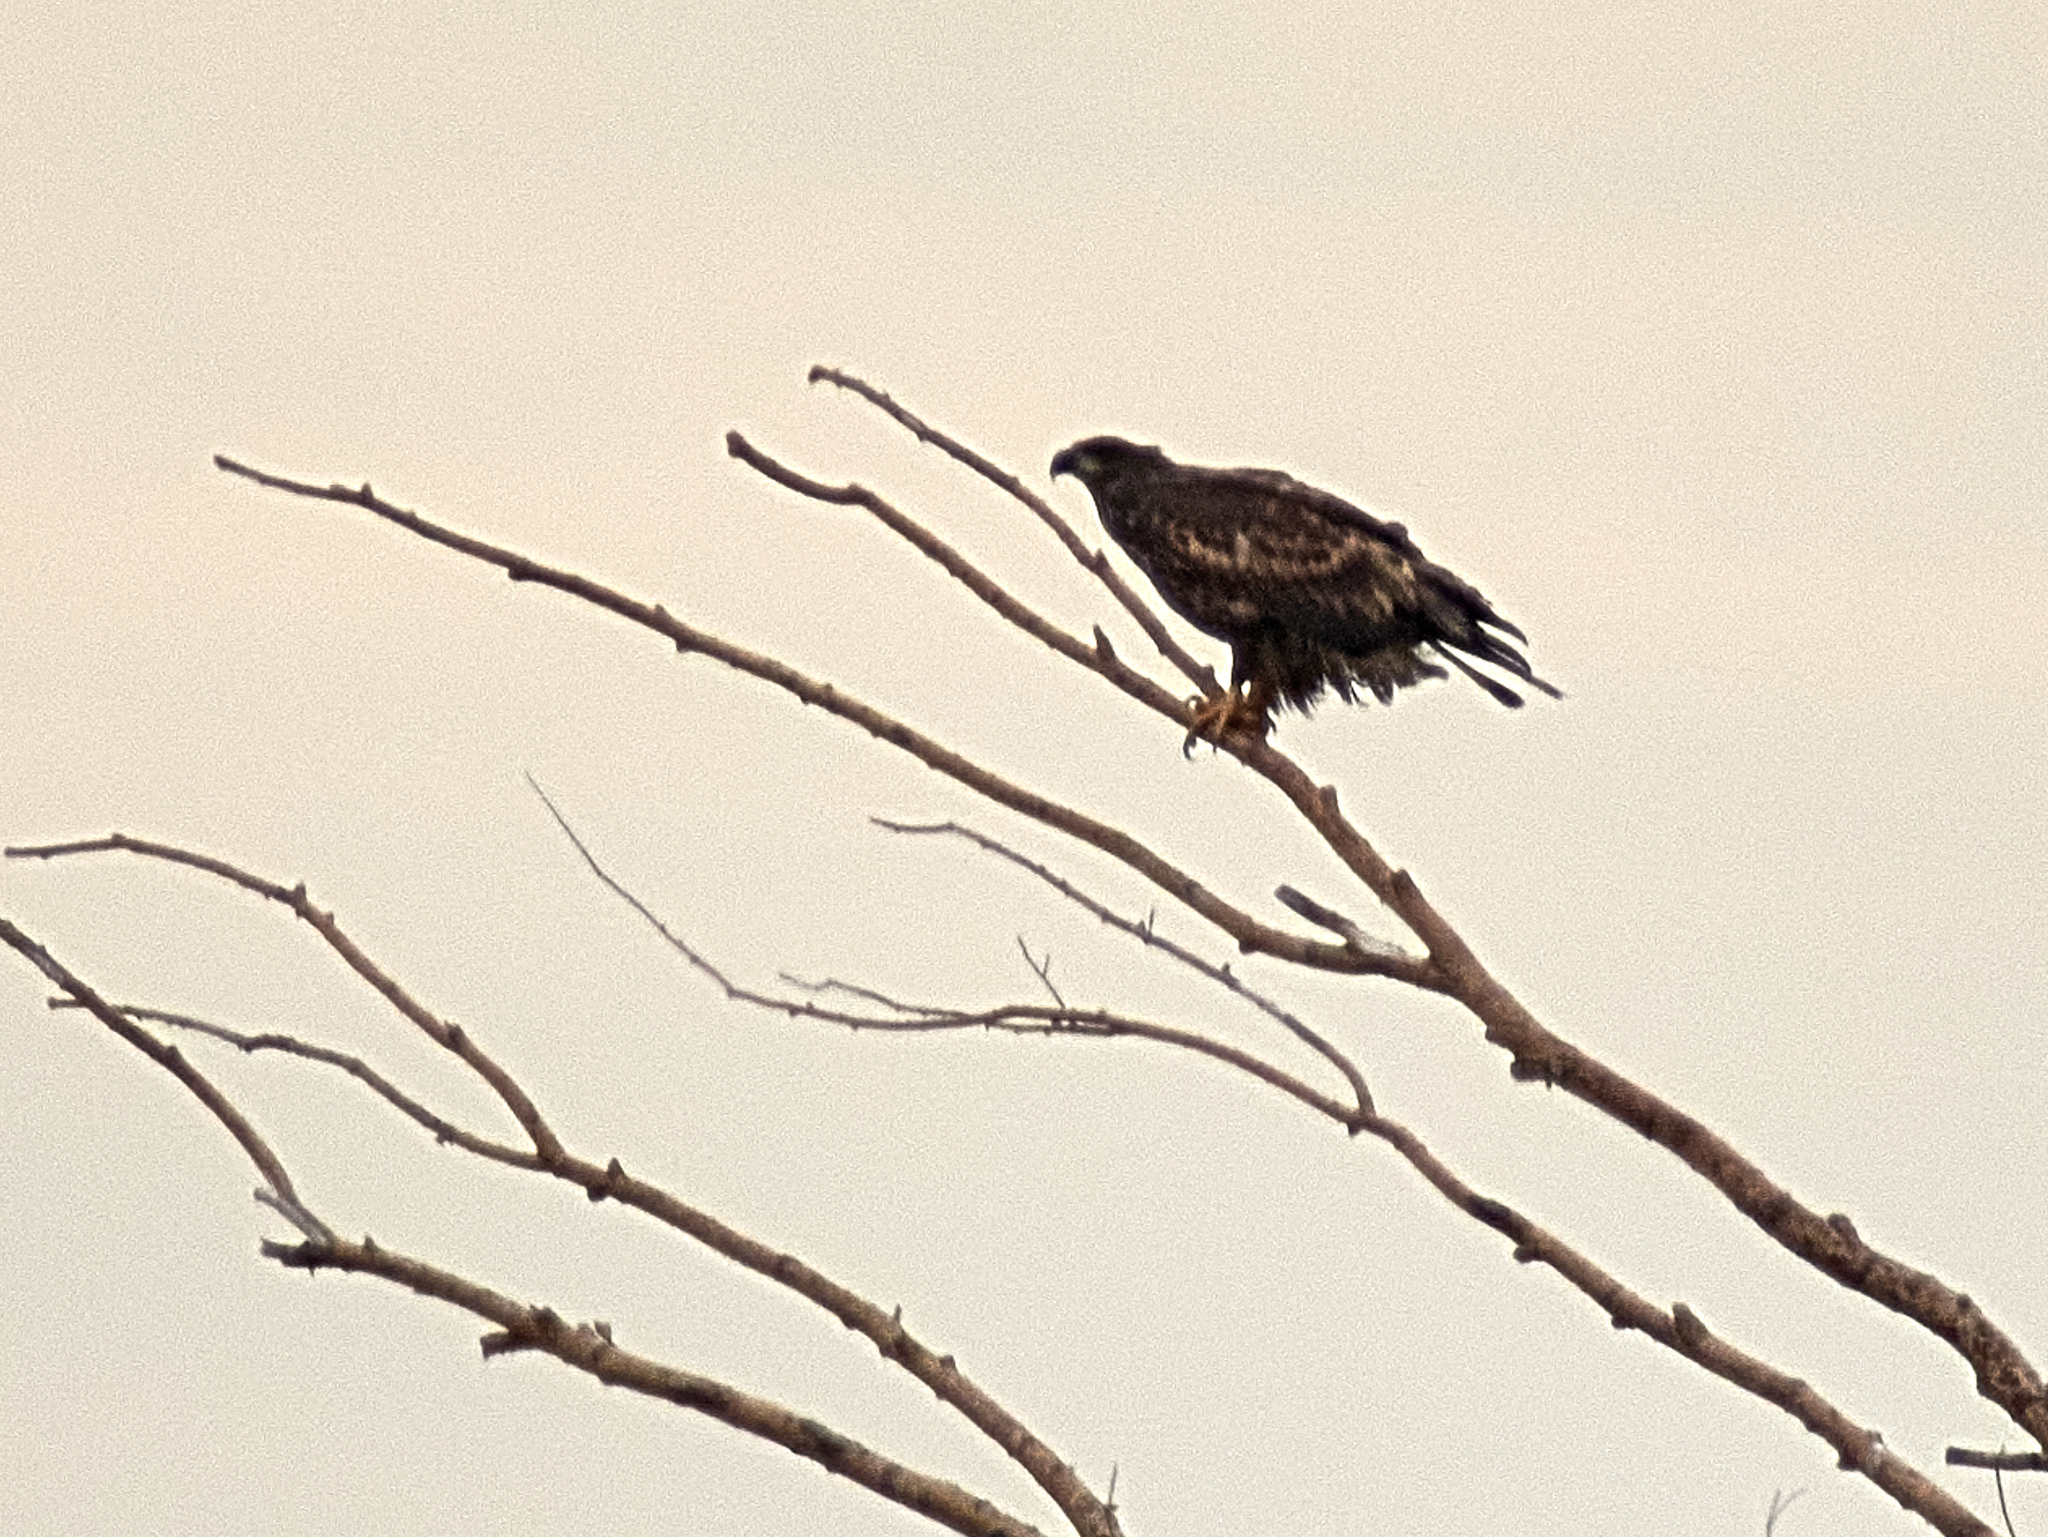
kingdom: Animalia
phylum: Chordata
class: Aves
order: Accipitriformes
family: Accipitridae
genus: Haliaeetus
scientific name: Haliaeetus albicilla
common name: White-tailed eagle
